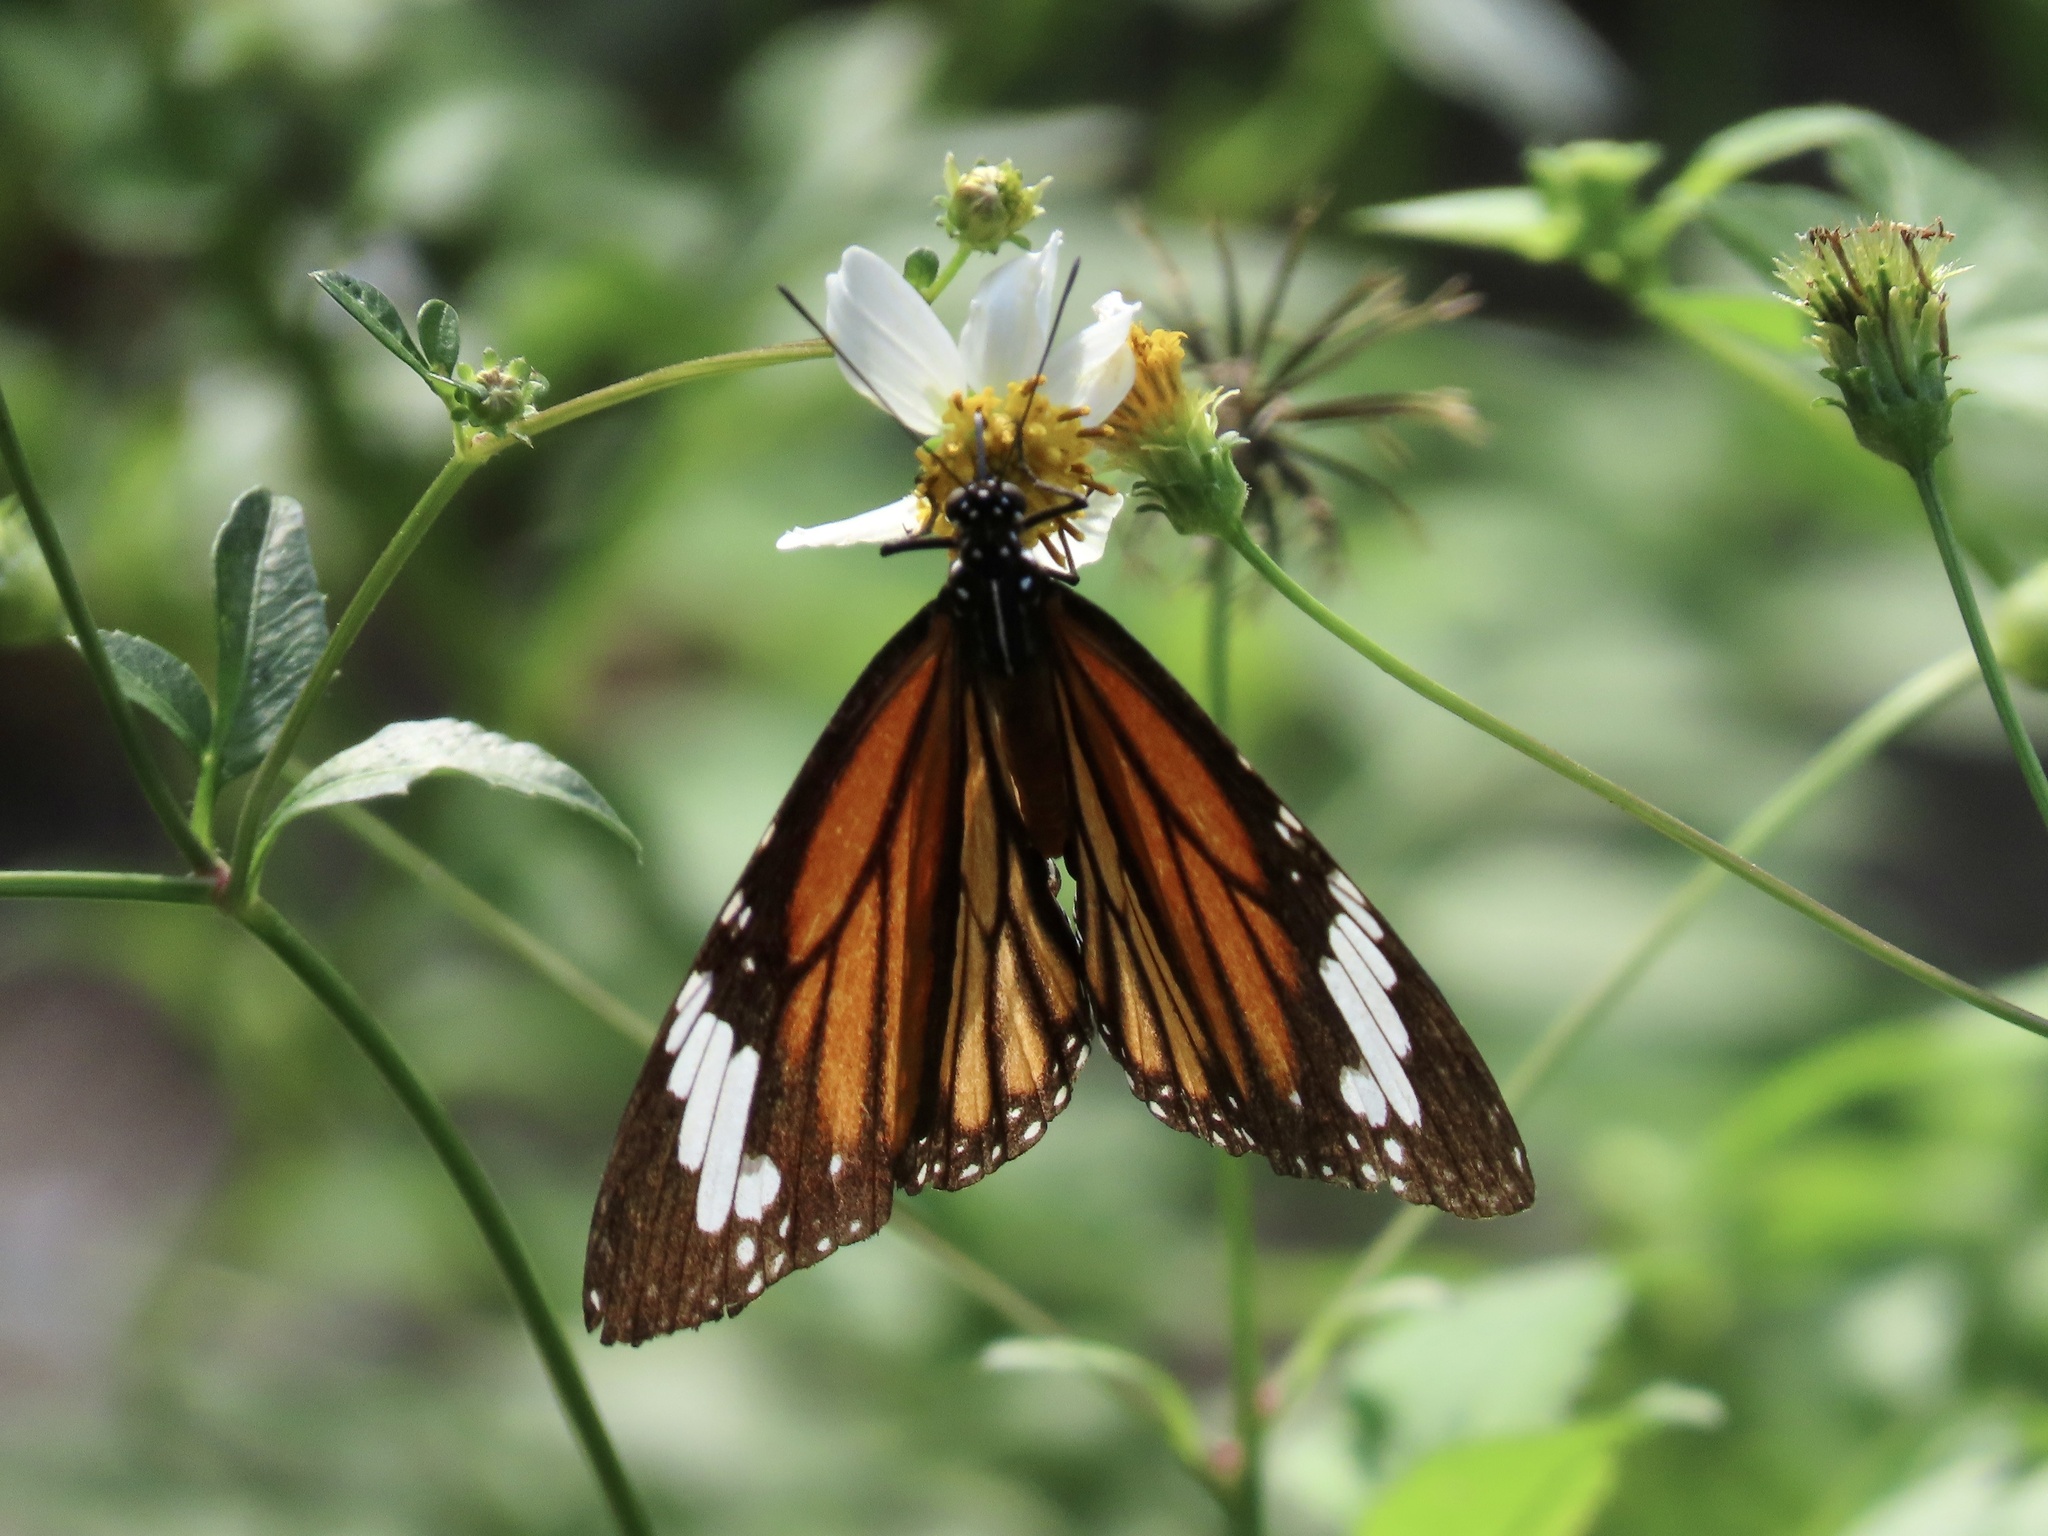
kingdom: Animalia
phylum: Arthropoda
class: Insecta
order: Lepidoptera
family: Nymphalidae
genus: Danaus
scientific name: Danaus genutia
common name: Common tiger butterfly
